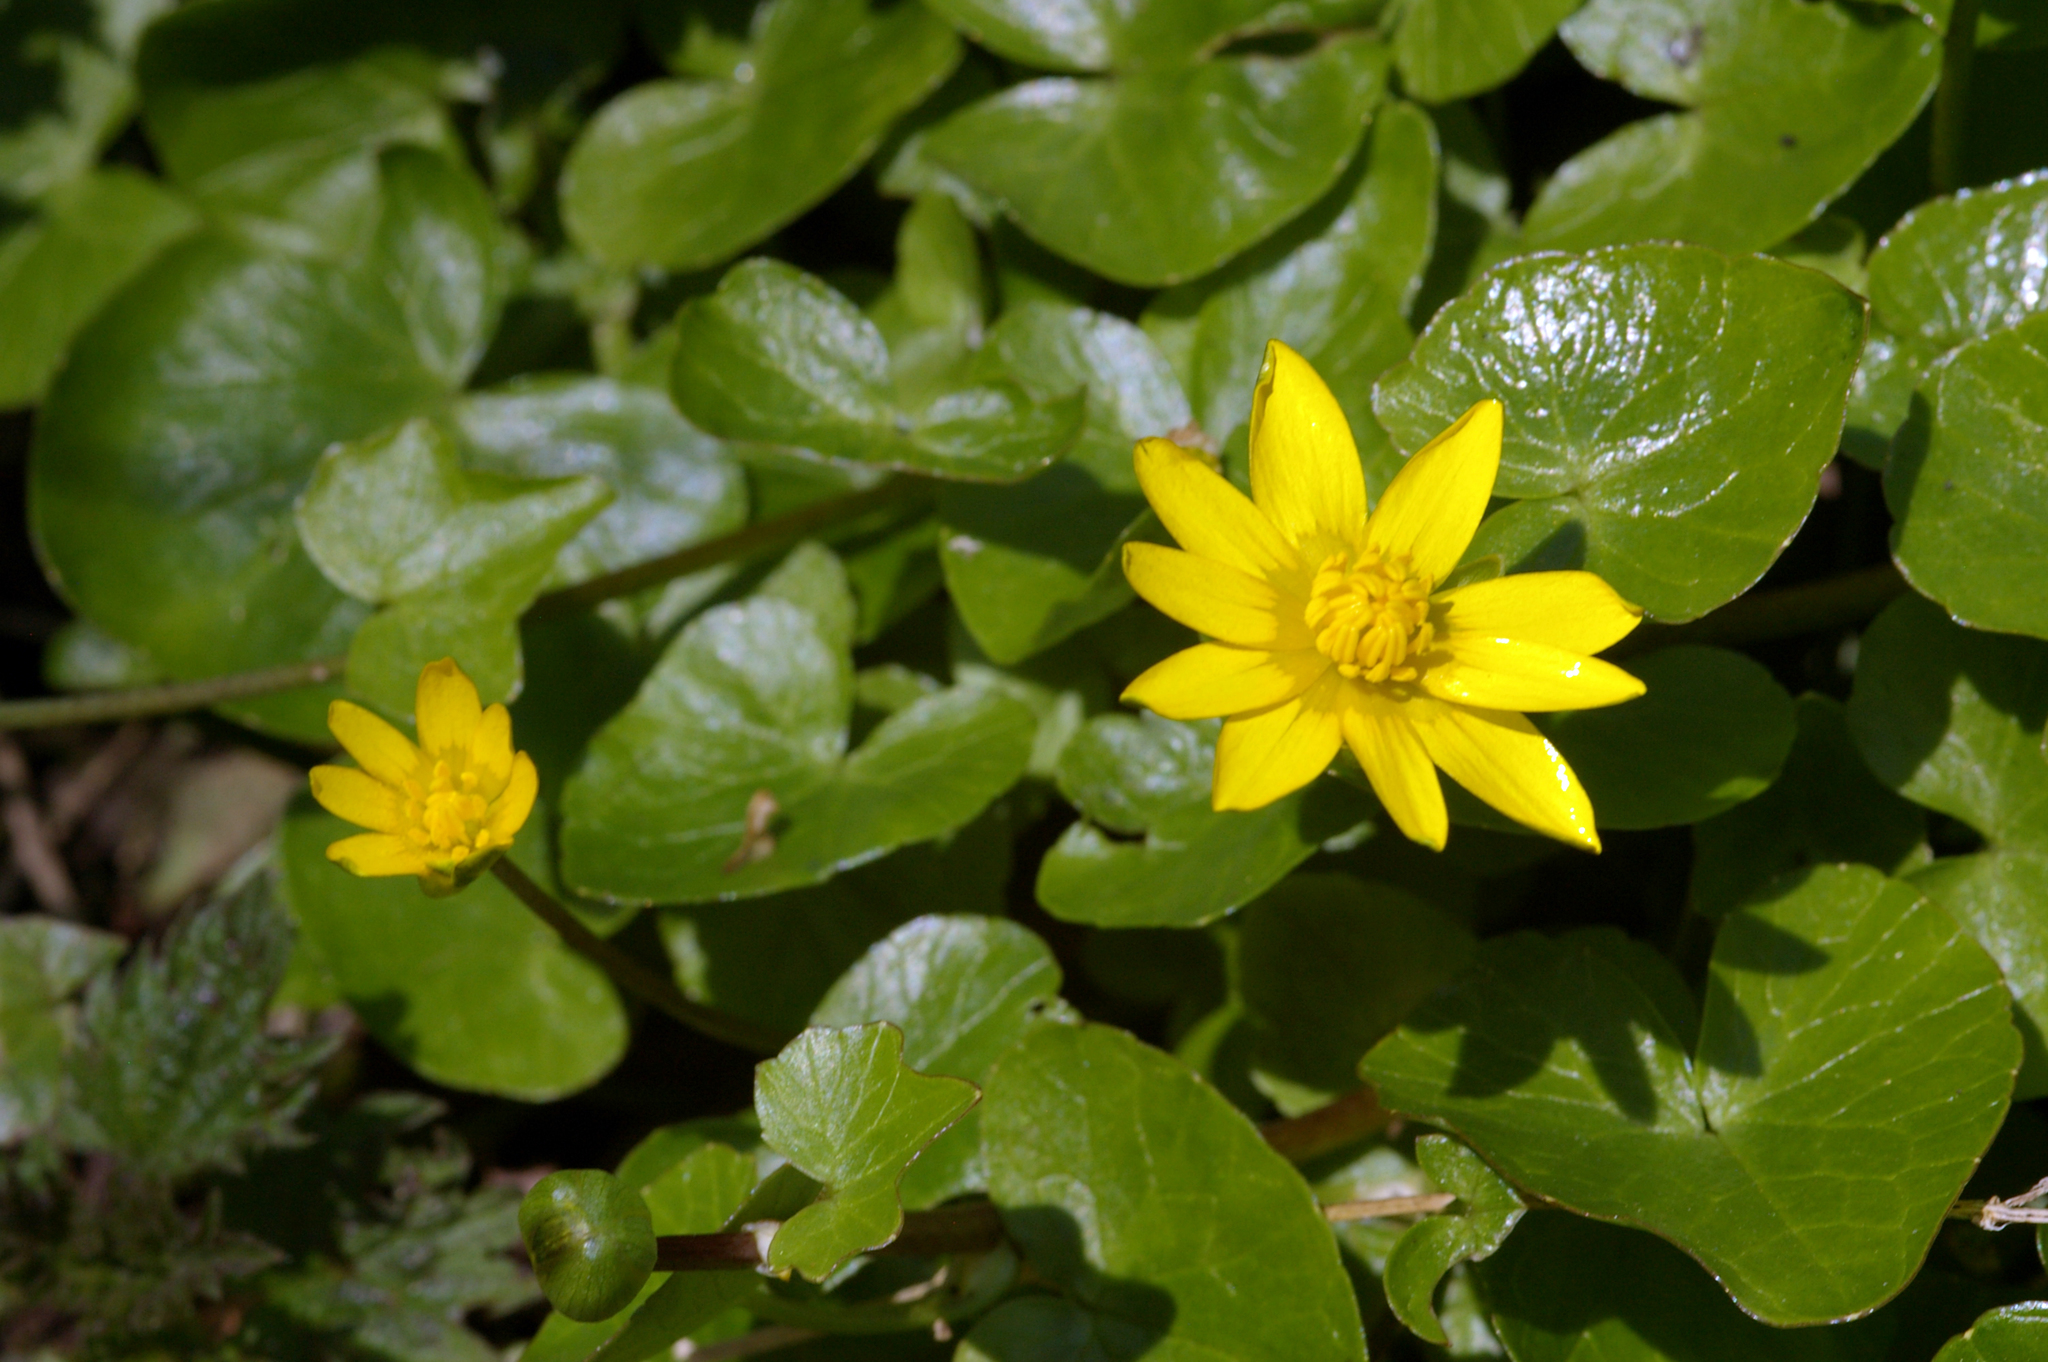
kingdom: Plantae
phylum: Tracheophyta
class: Magnoliopsida
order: Ranunculales
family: Ranunculaceae
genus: Ficaria
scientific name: Ficaria verna
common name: Lesser celandine
